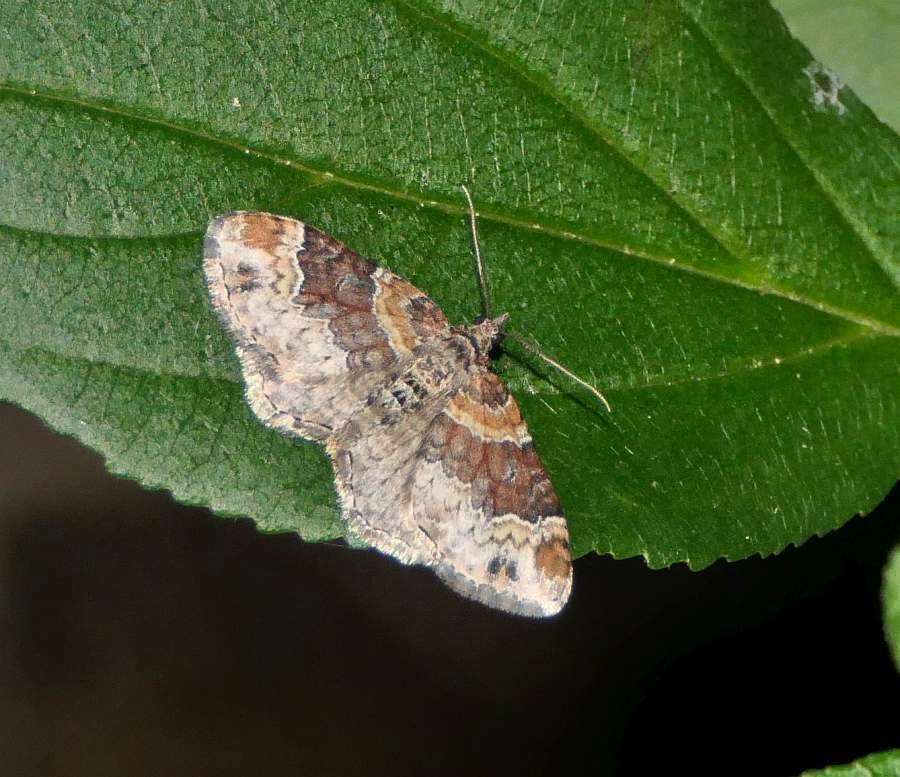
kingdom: Animalia
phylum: Arthropoda
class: Insecta
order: Lepidoptera
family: Geometridae
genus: Xanthorhoe
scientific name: Xanthorhoe ferrugata
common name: Dark-barred twin-spot carpet
